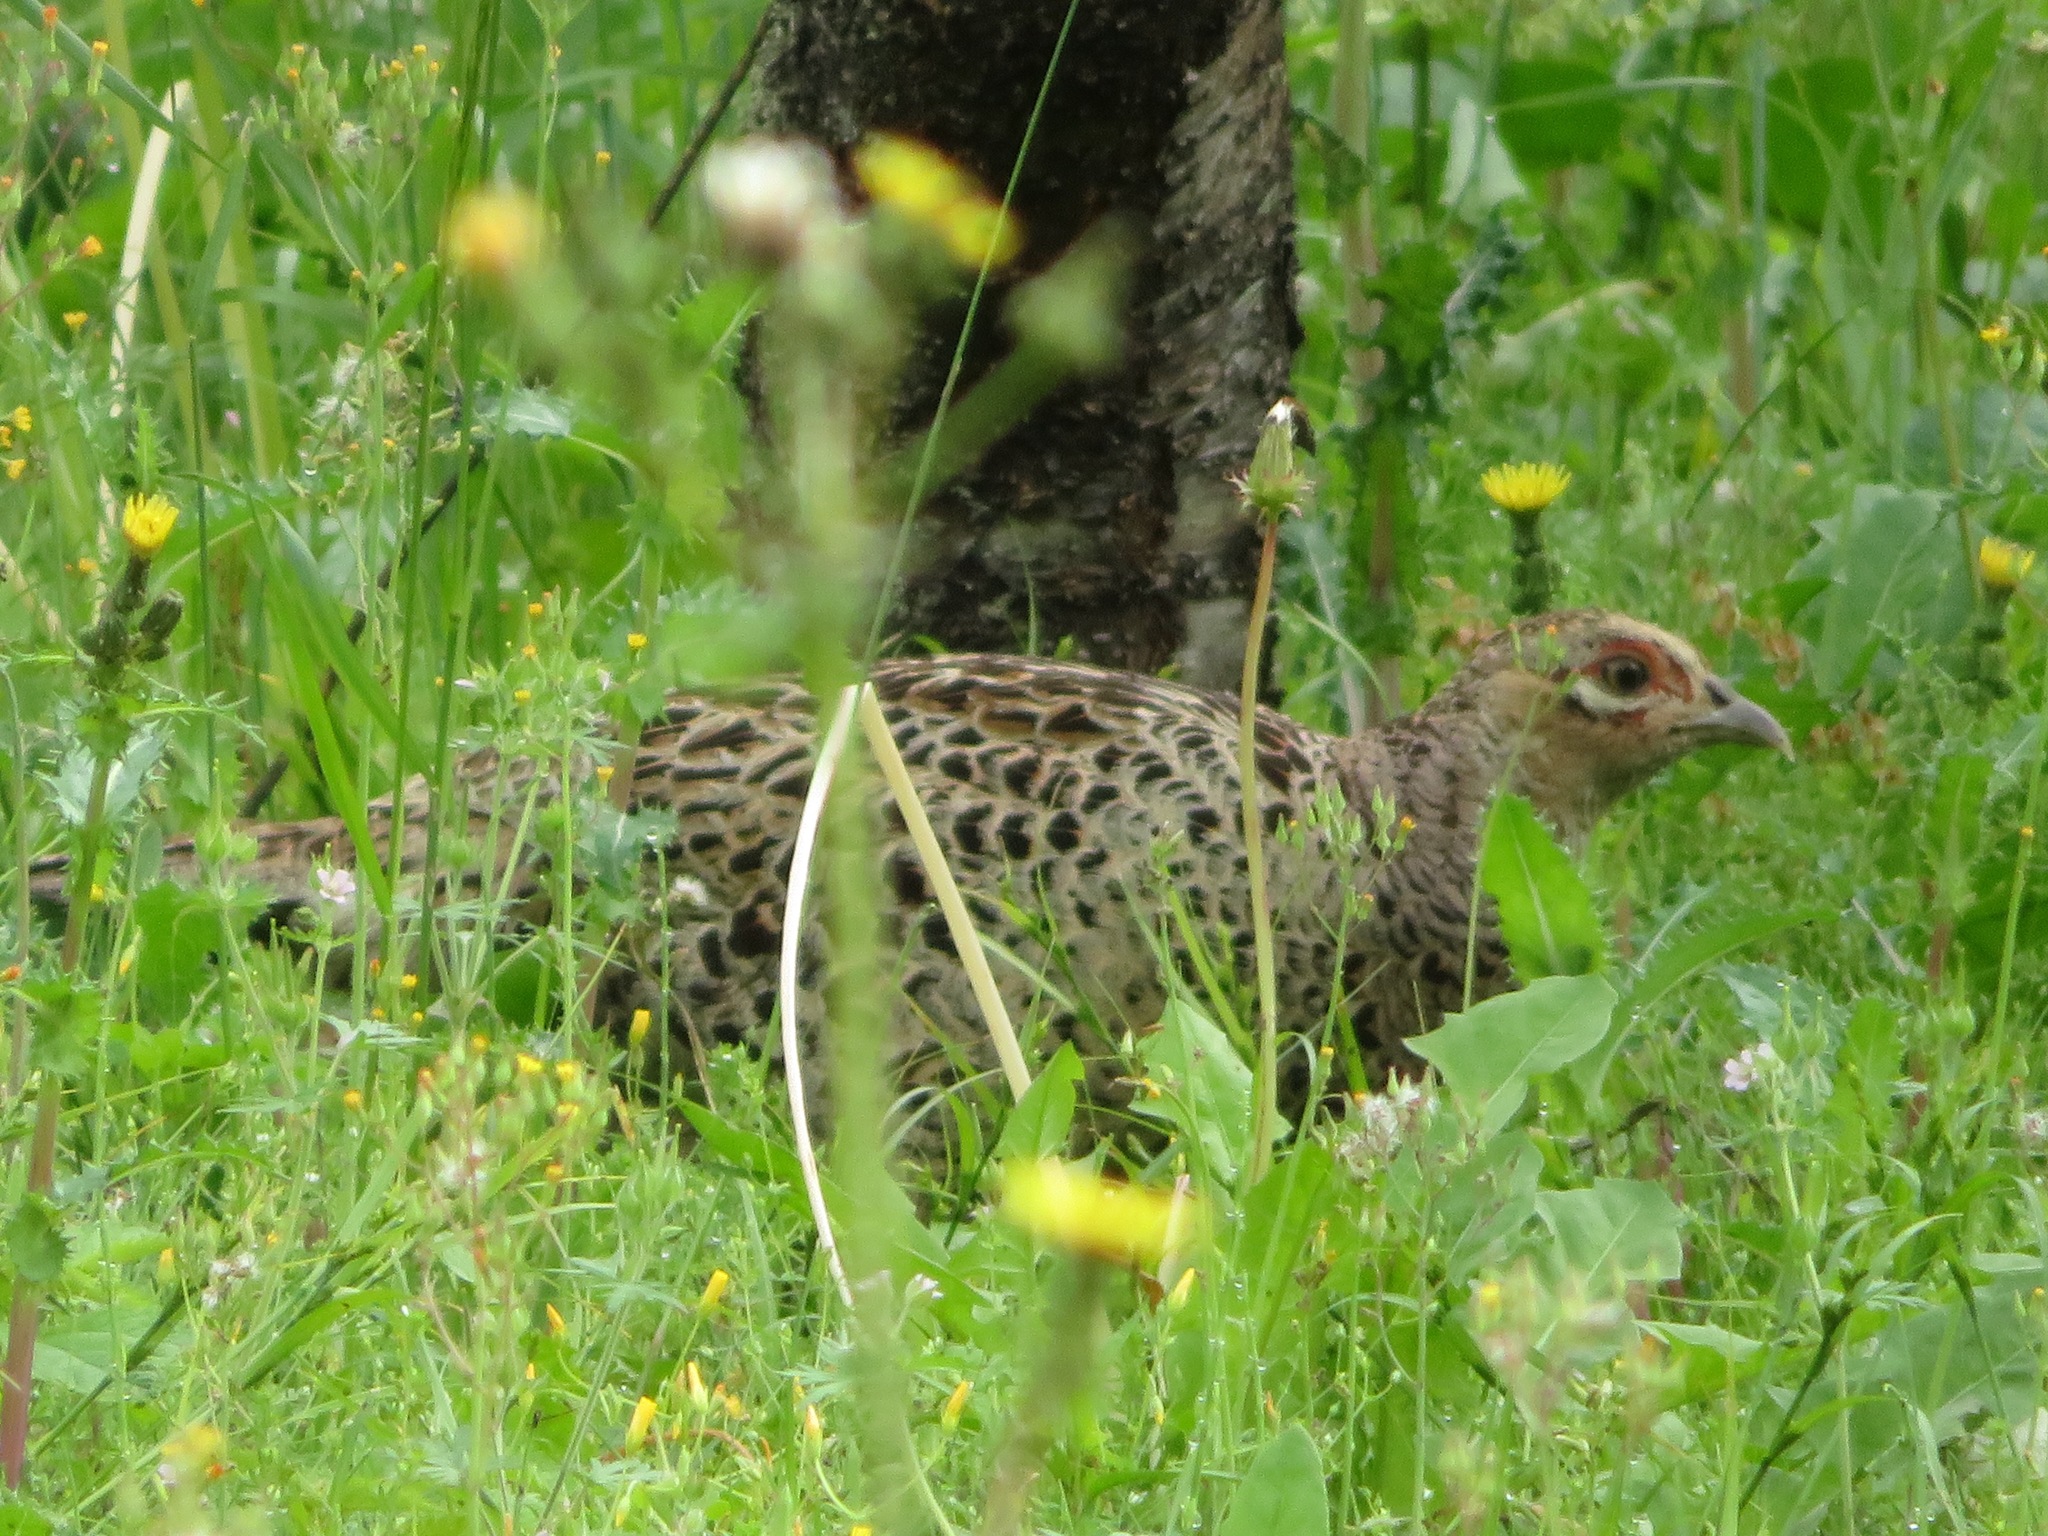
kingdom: Animalia
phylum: Chordata
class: Aves
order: Galliformes
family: Phasianidae
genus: Phasianus
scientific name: Phasianus versicolor
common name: Green pheasant
